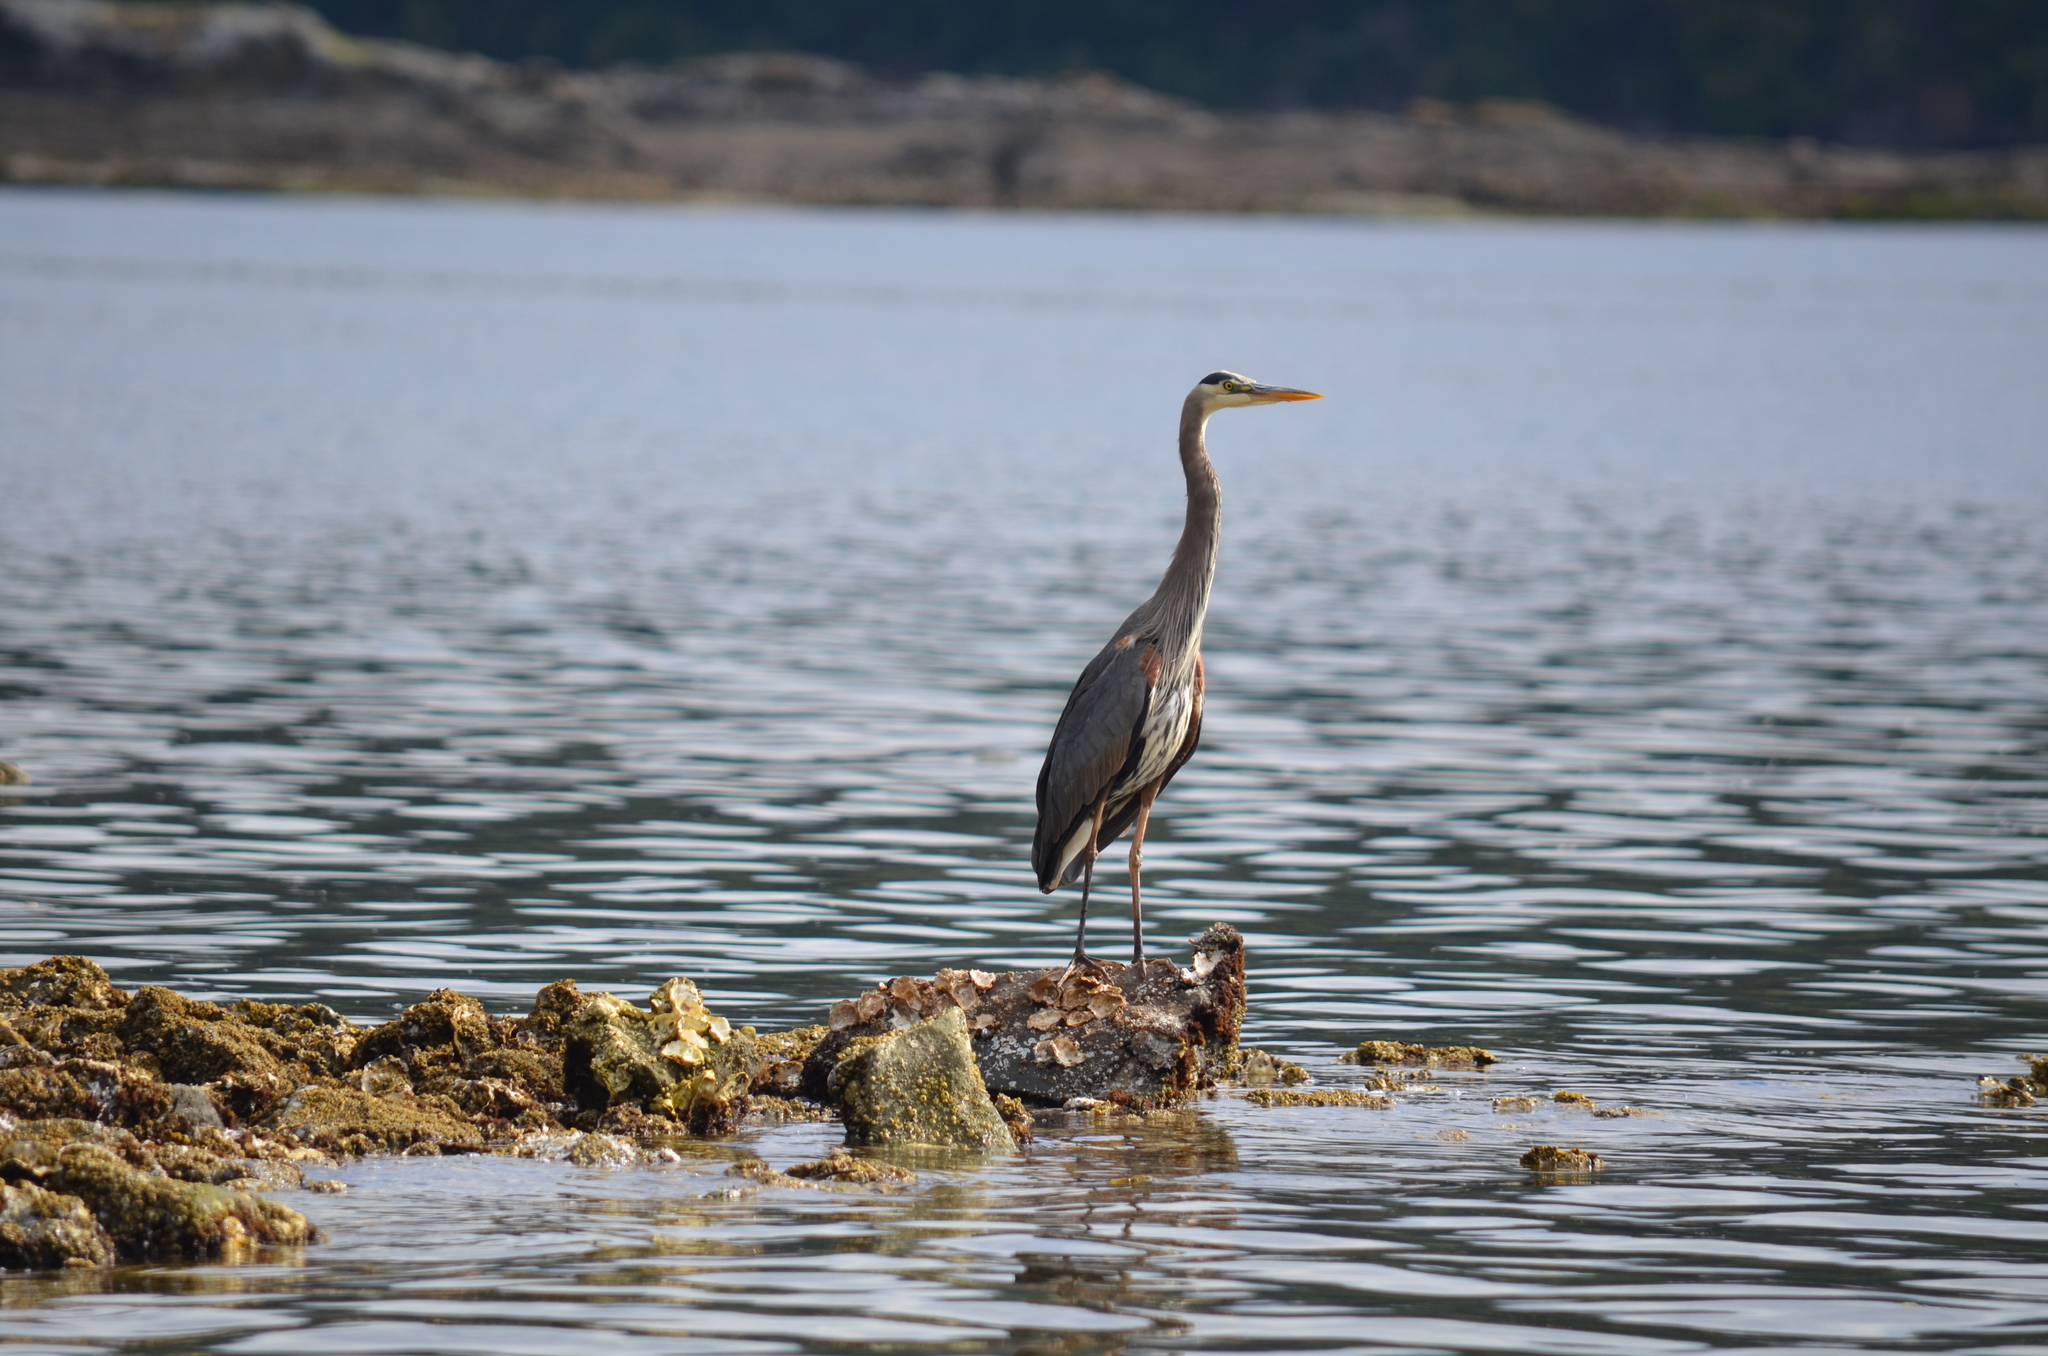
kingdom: Animalia
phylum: Chordata
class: Aves
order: Pelecaniformes
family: Ardeidae
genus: Ardea
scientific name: Ardea herodias
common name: Great blue heron
